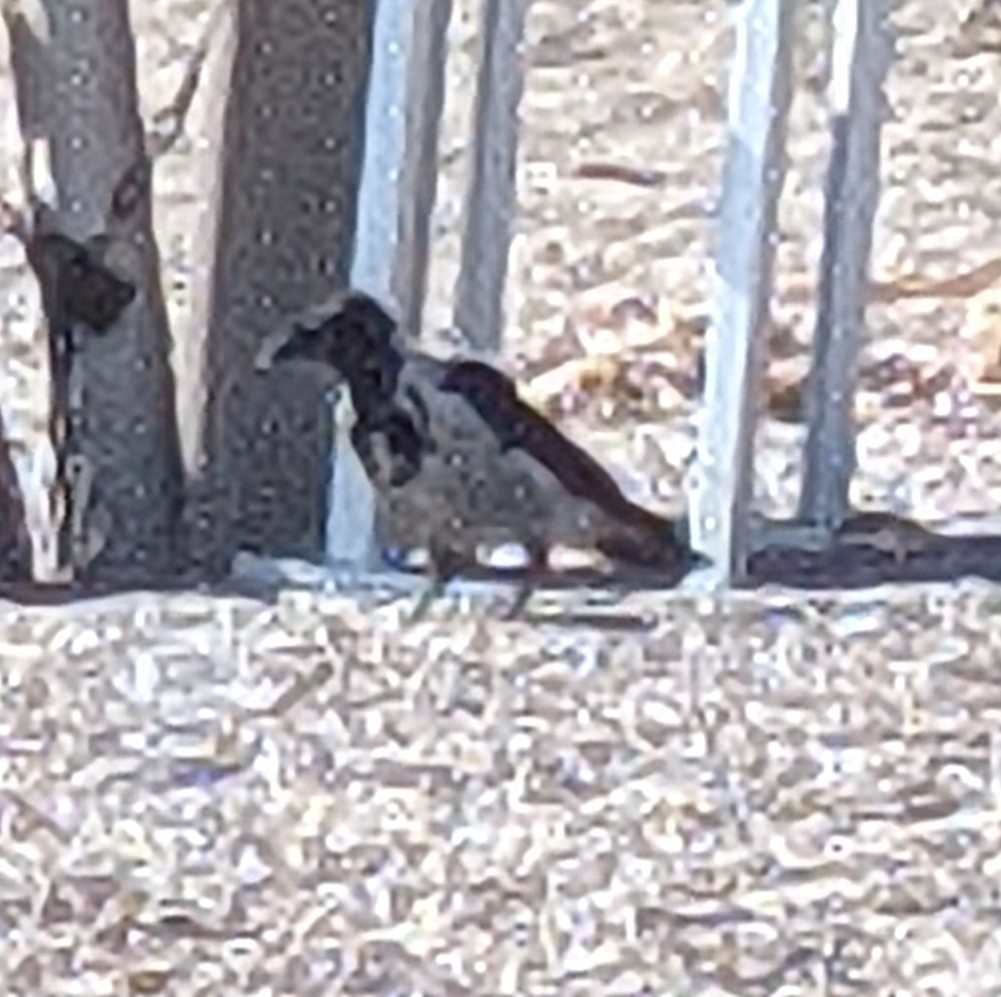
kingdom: Animalia
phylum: Chordata
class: Aves
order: Passeriformes
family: Corvidae
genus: Corvus
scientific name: Corvus cornix
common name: Hooded crow
